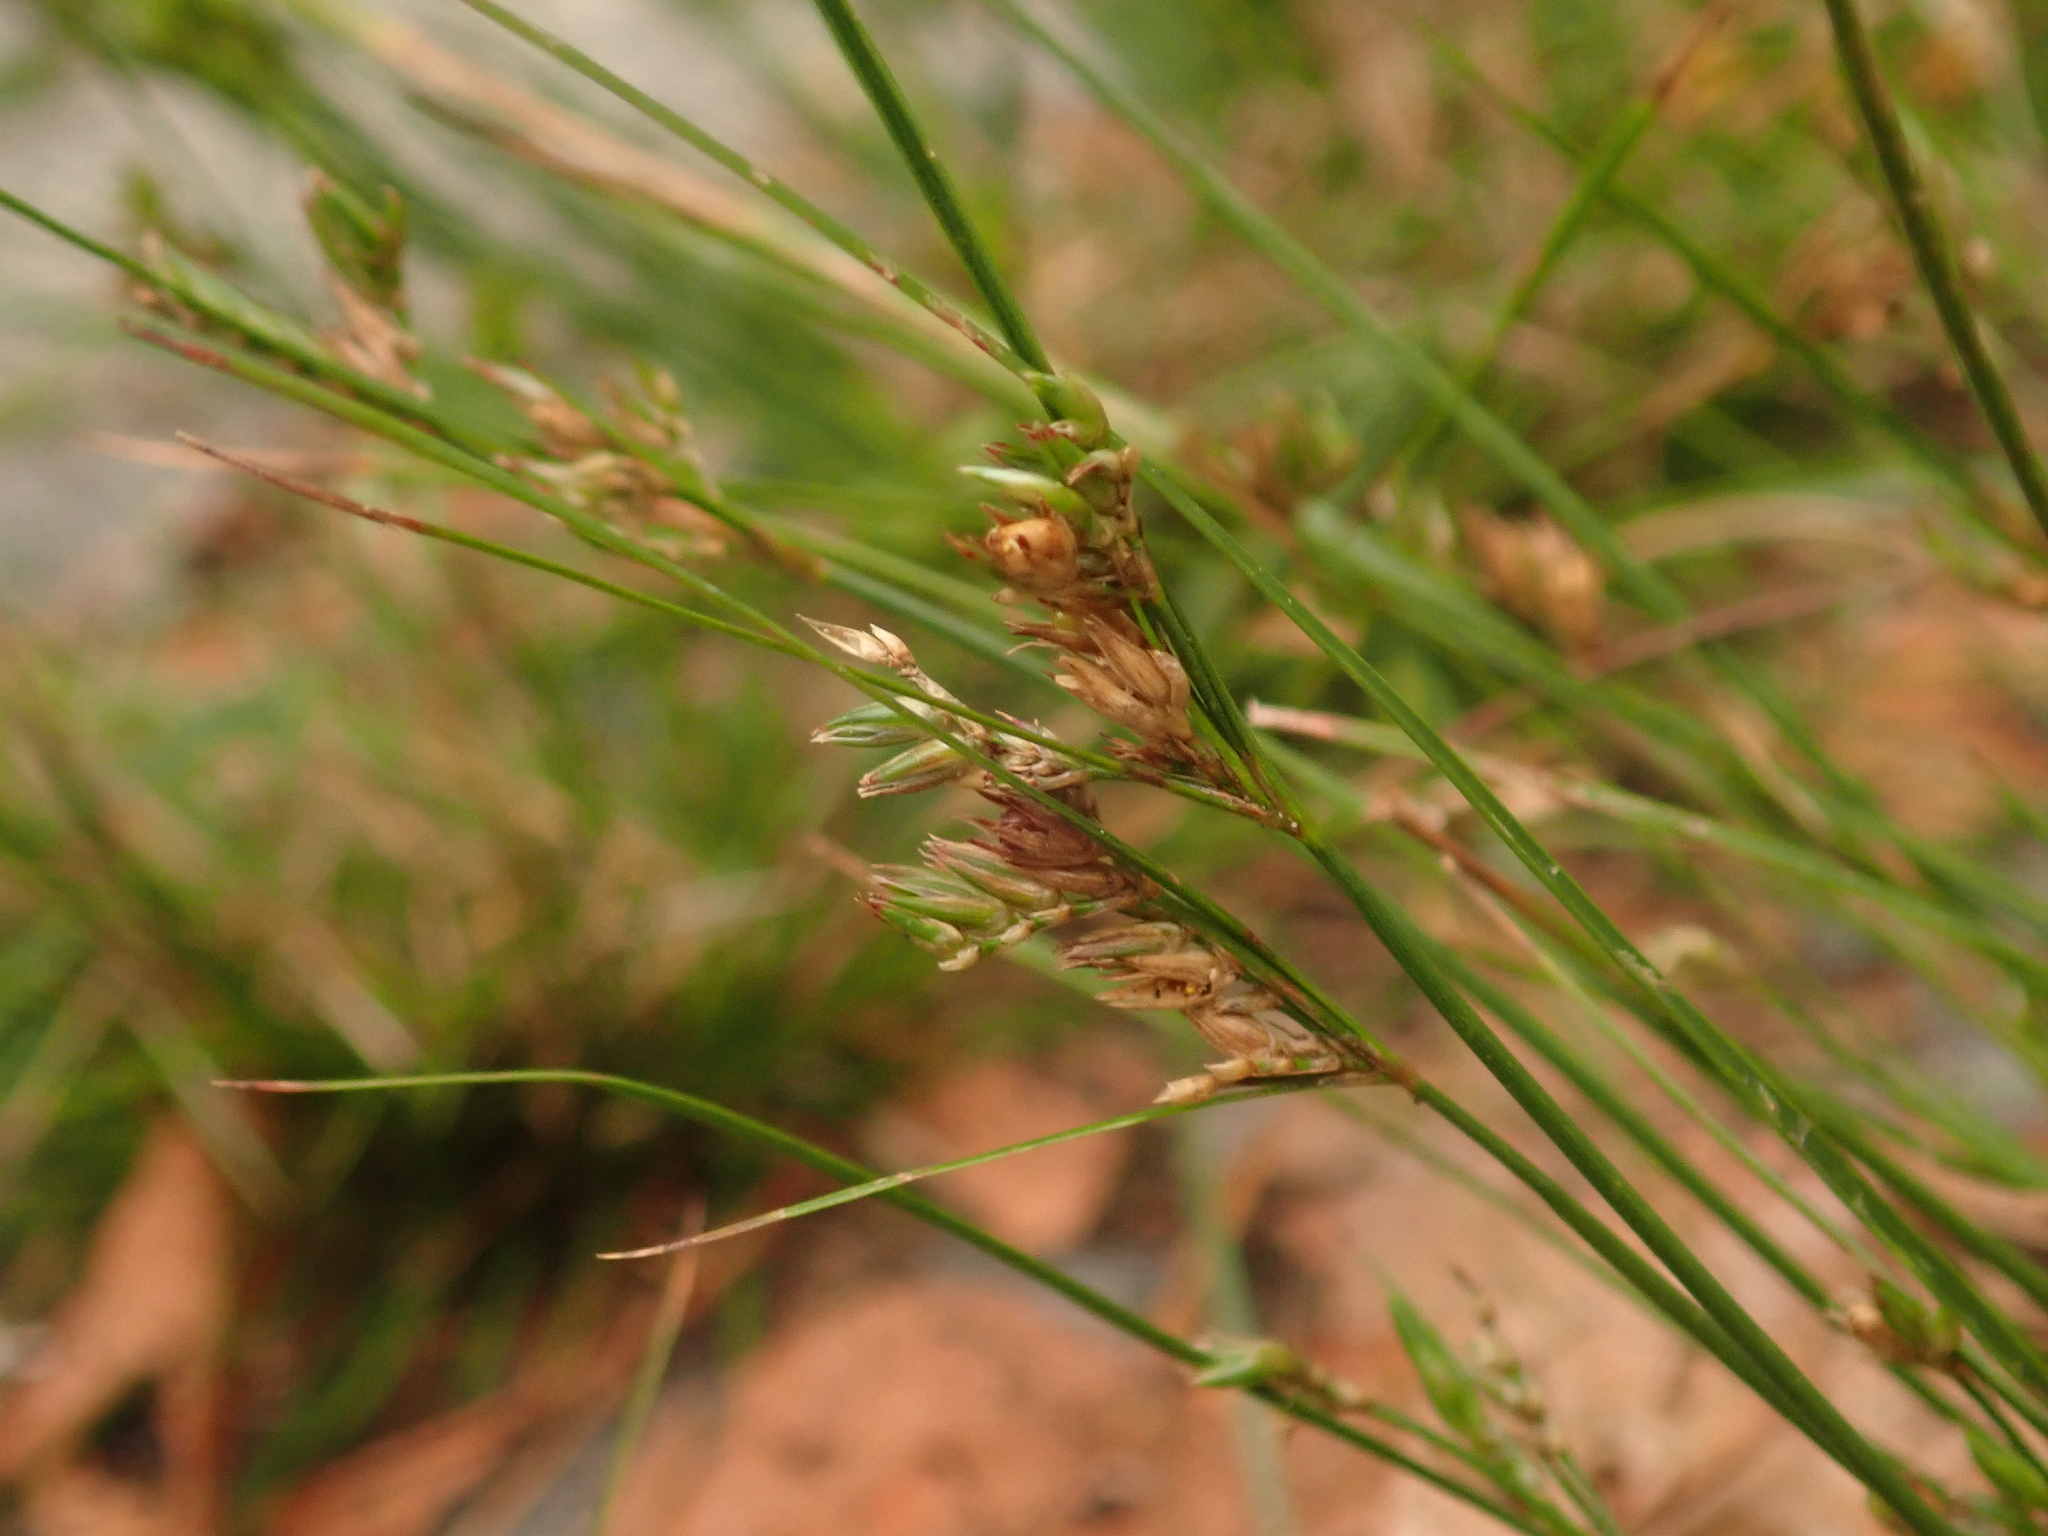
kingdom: Plantae
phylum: Tracheophyta
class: Liliopsida
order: Poales
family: Juncaceae
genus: Juncus
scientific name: Juncus tenuis
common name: Slender rush
